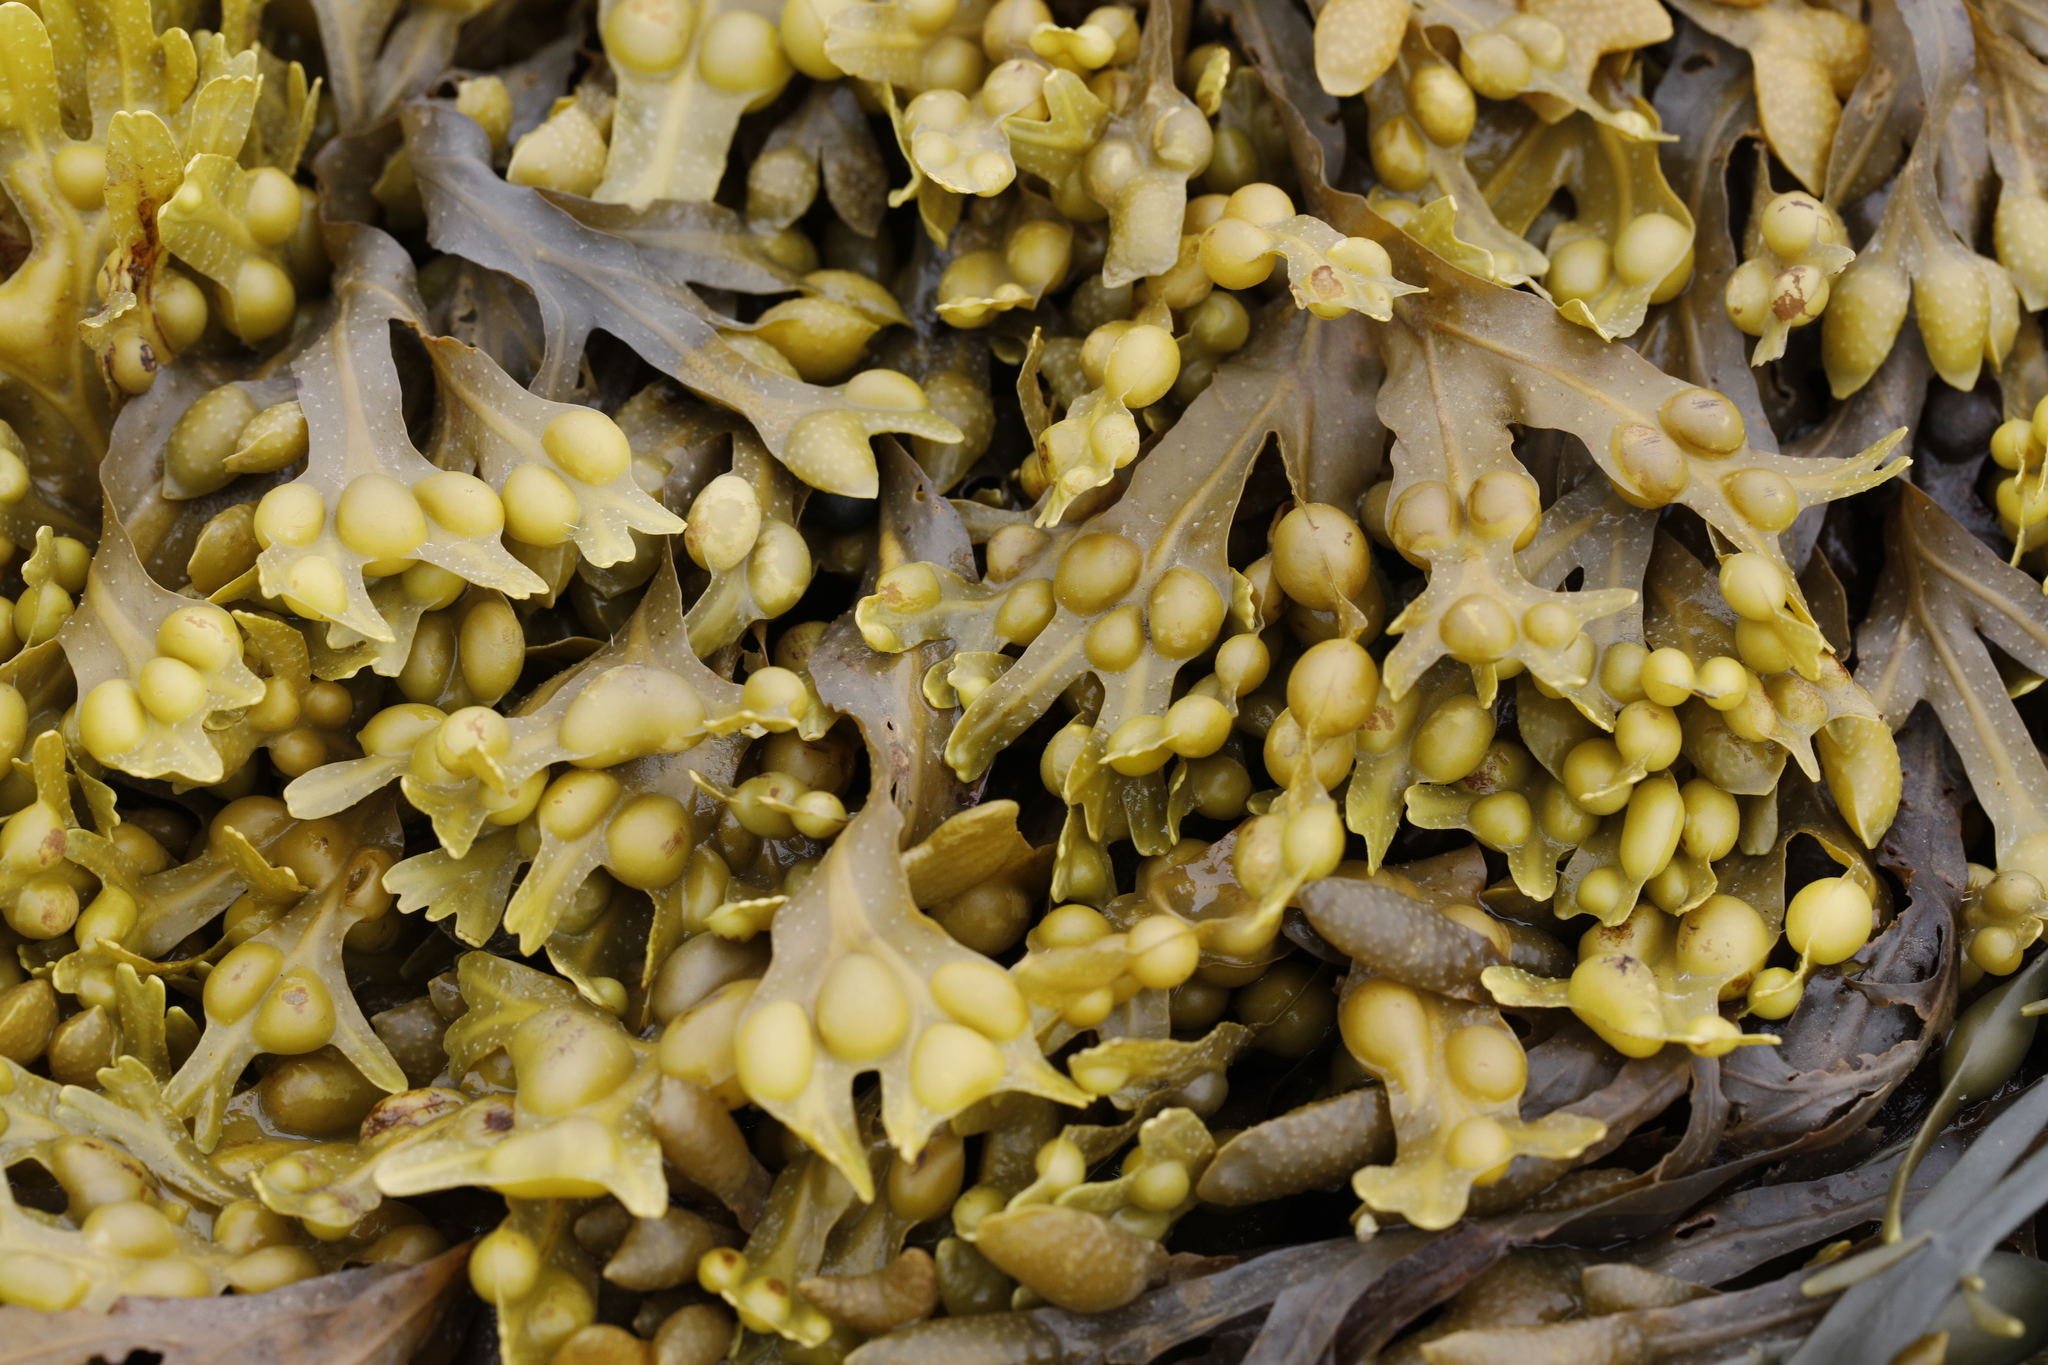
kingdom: Chromista
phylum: Ochrophyta
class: Phaeophyceae
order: Fucales
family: Fucaceae
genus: Fucus
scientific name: Fucus vesiculosus
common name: Bladder wrack
